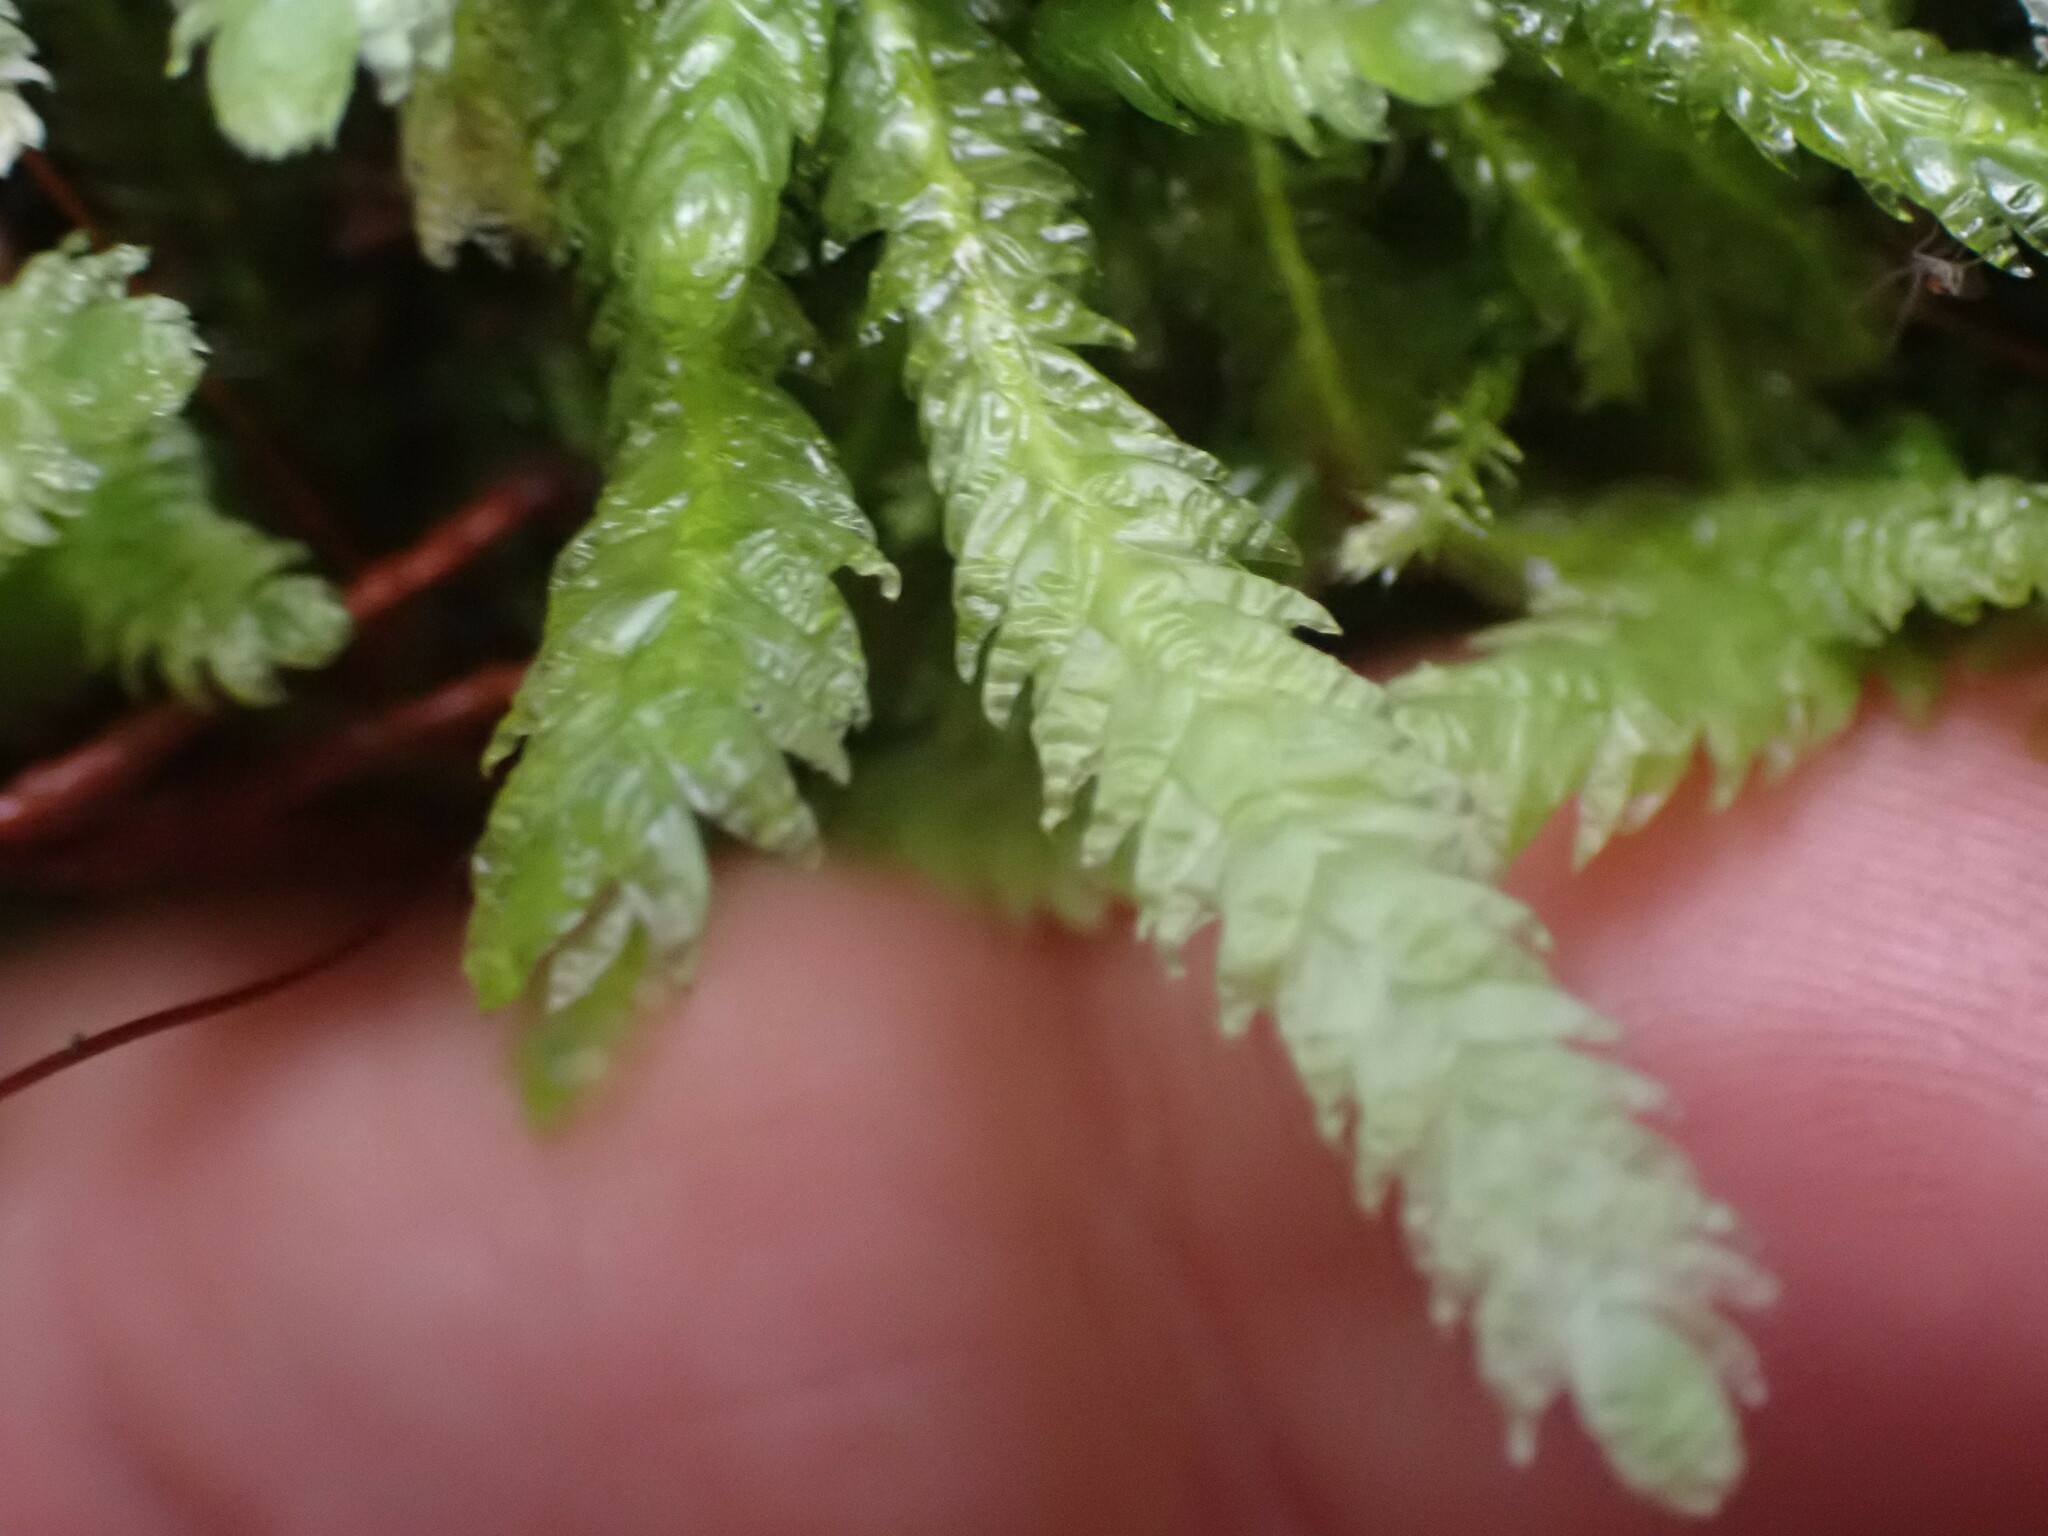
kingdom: Plantae
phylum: Bryophyta
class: Bryopsida
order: Hypnales
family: Plagiotheciaceae
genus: Plagiothecium
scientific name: Plagiothecium undulatum
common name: Waved silk-moss
